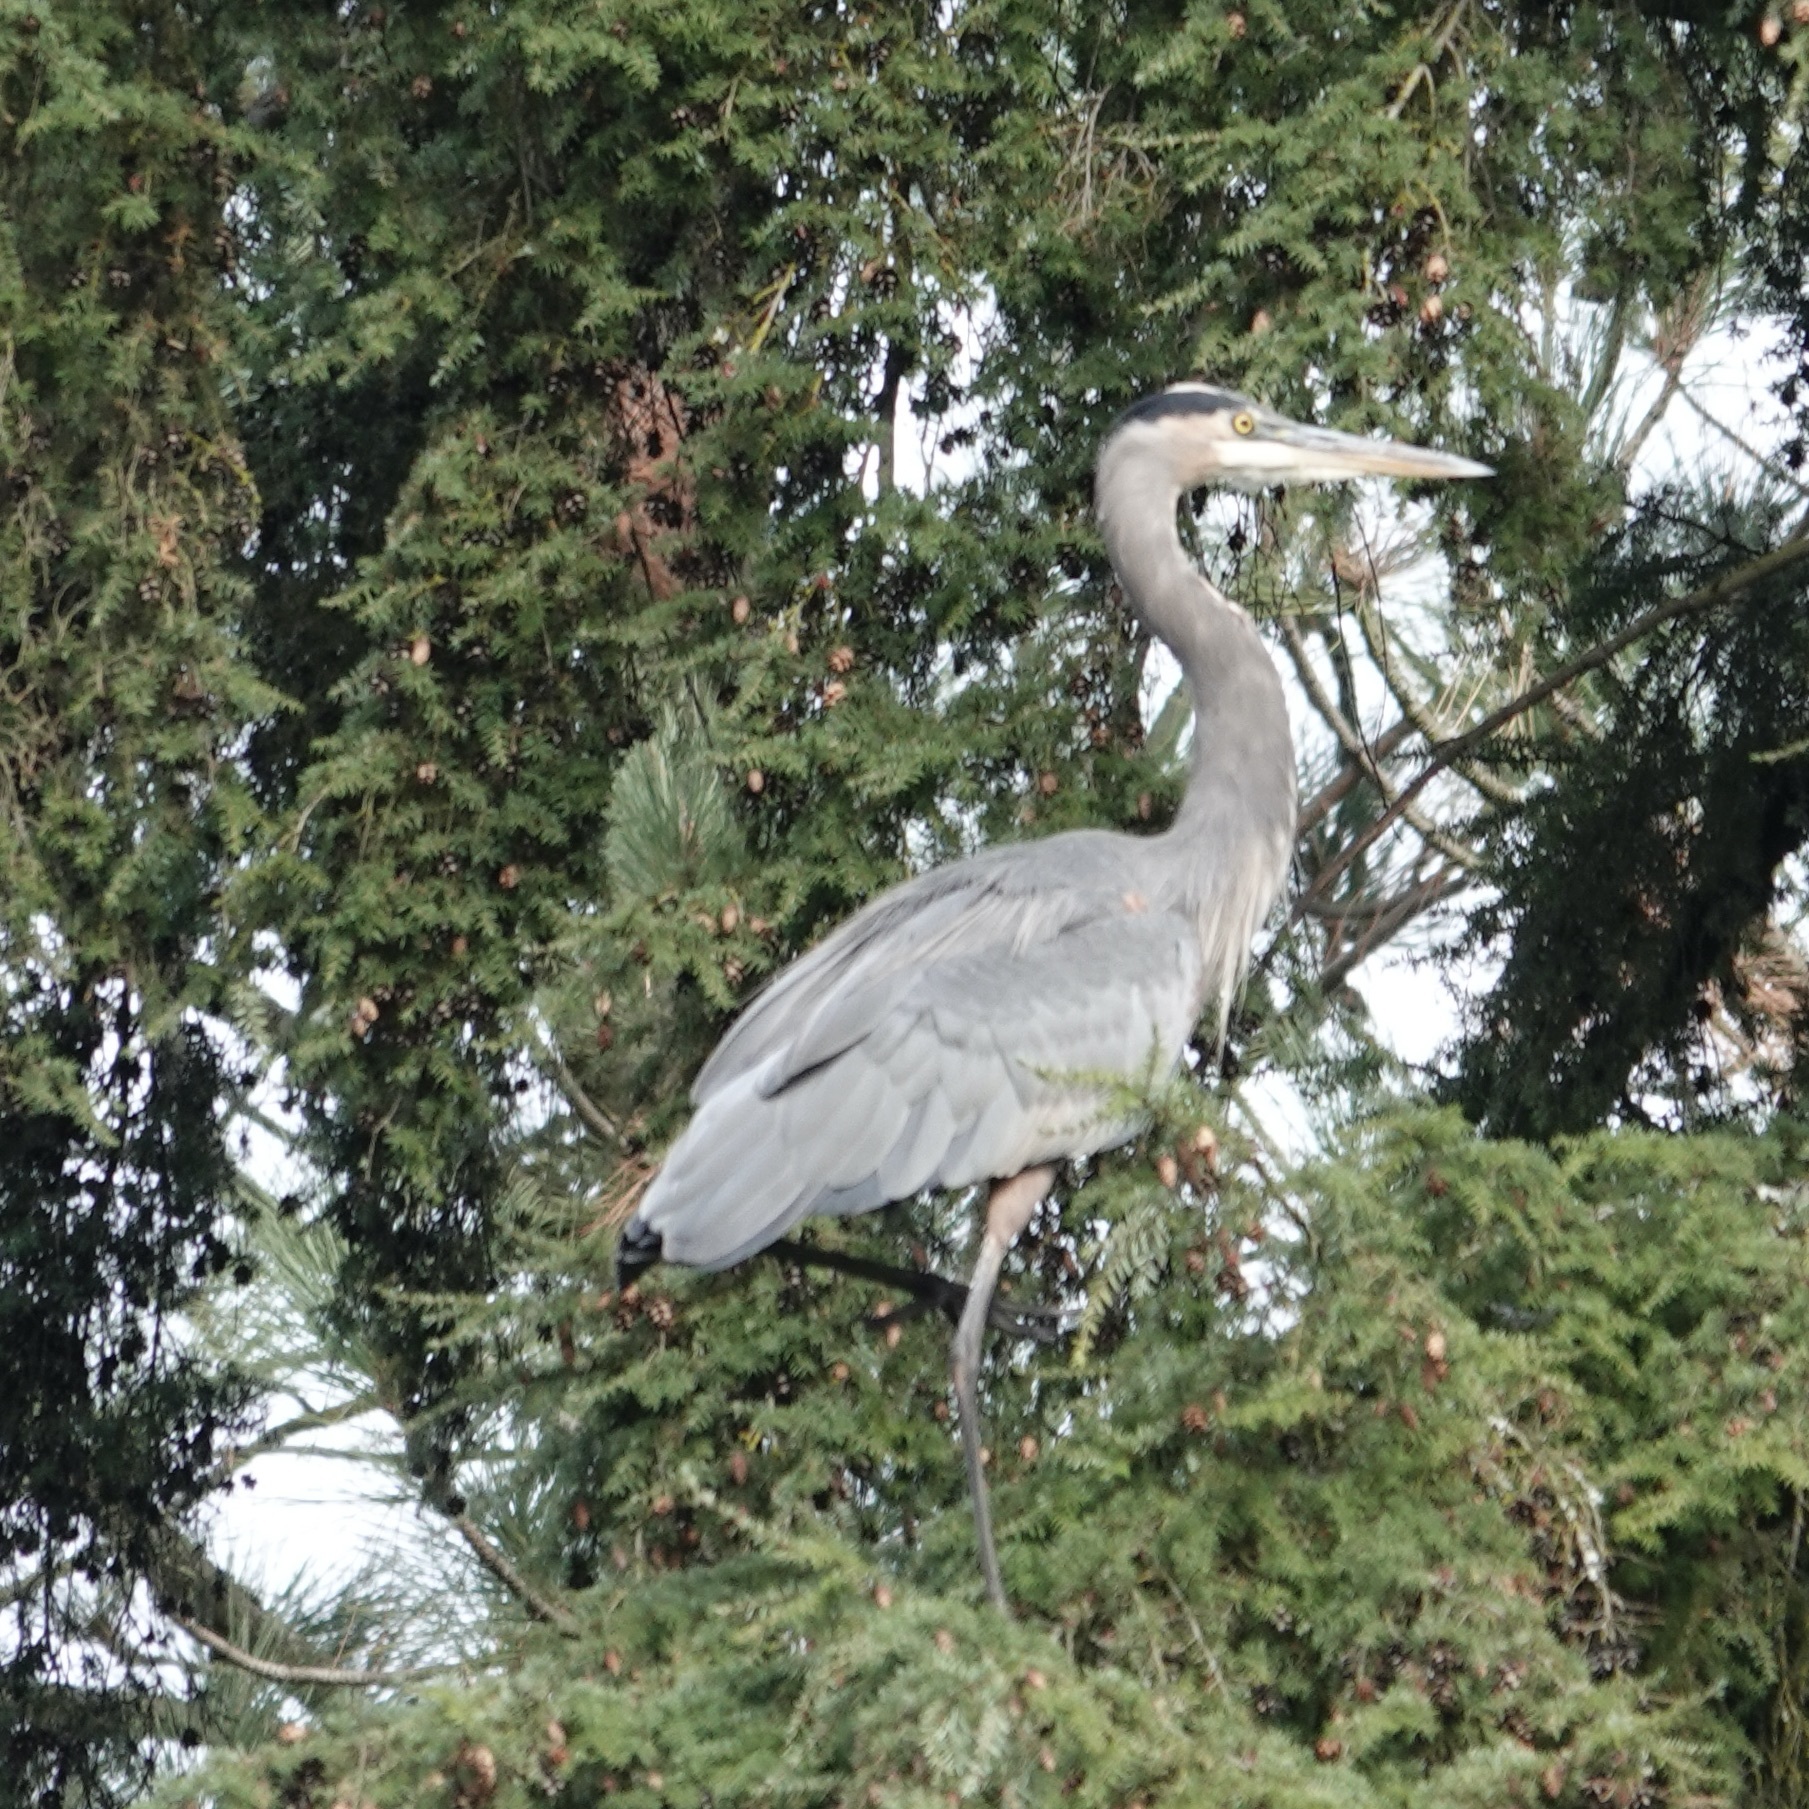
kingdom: Animalia
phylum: Chordata
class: Aves
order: Pelecaniformes
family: Ardeidae
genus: Ardea
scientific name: Ardea herodias
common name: Great blue heron
